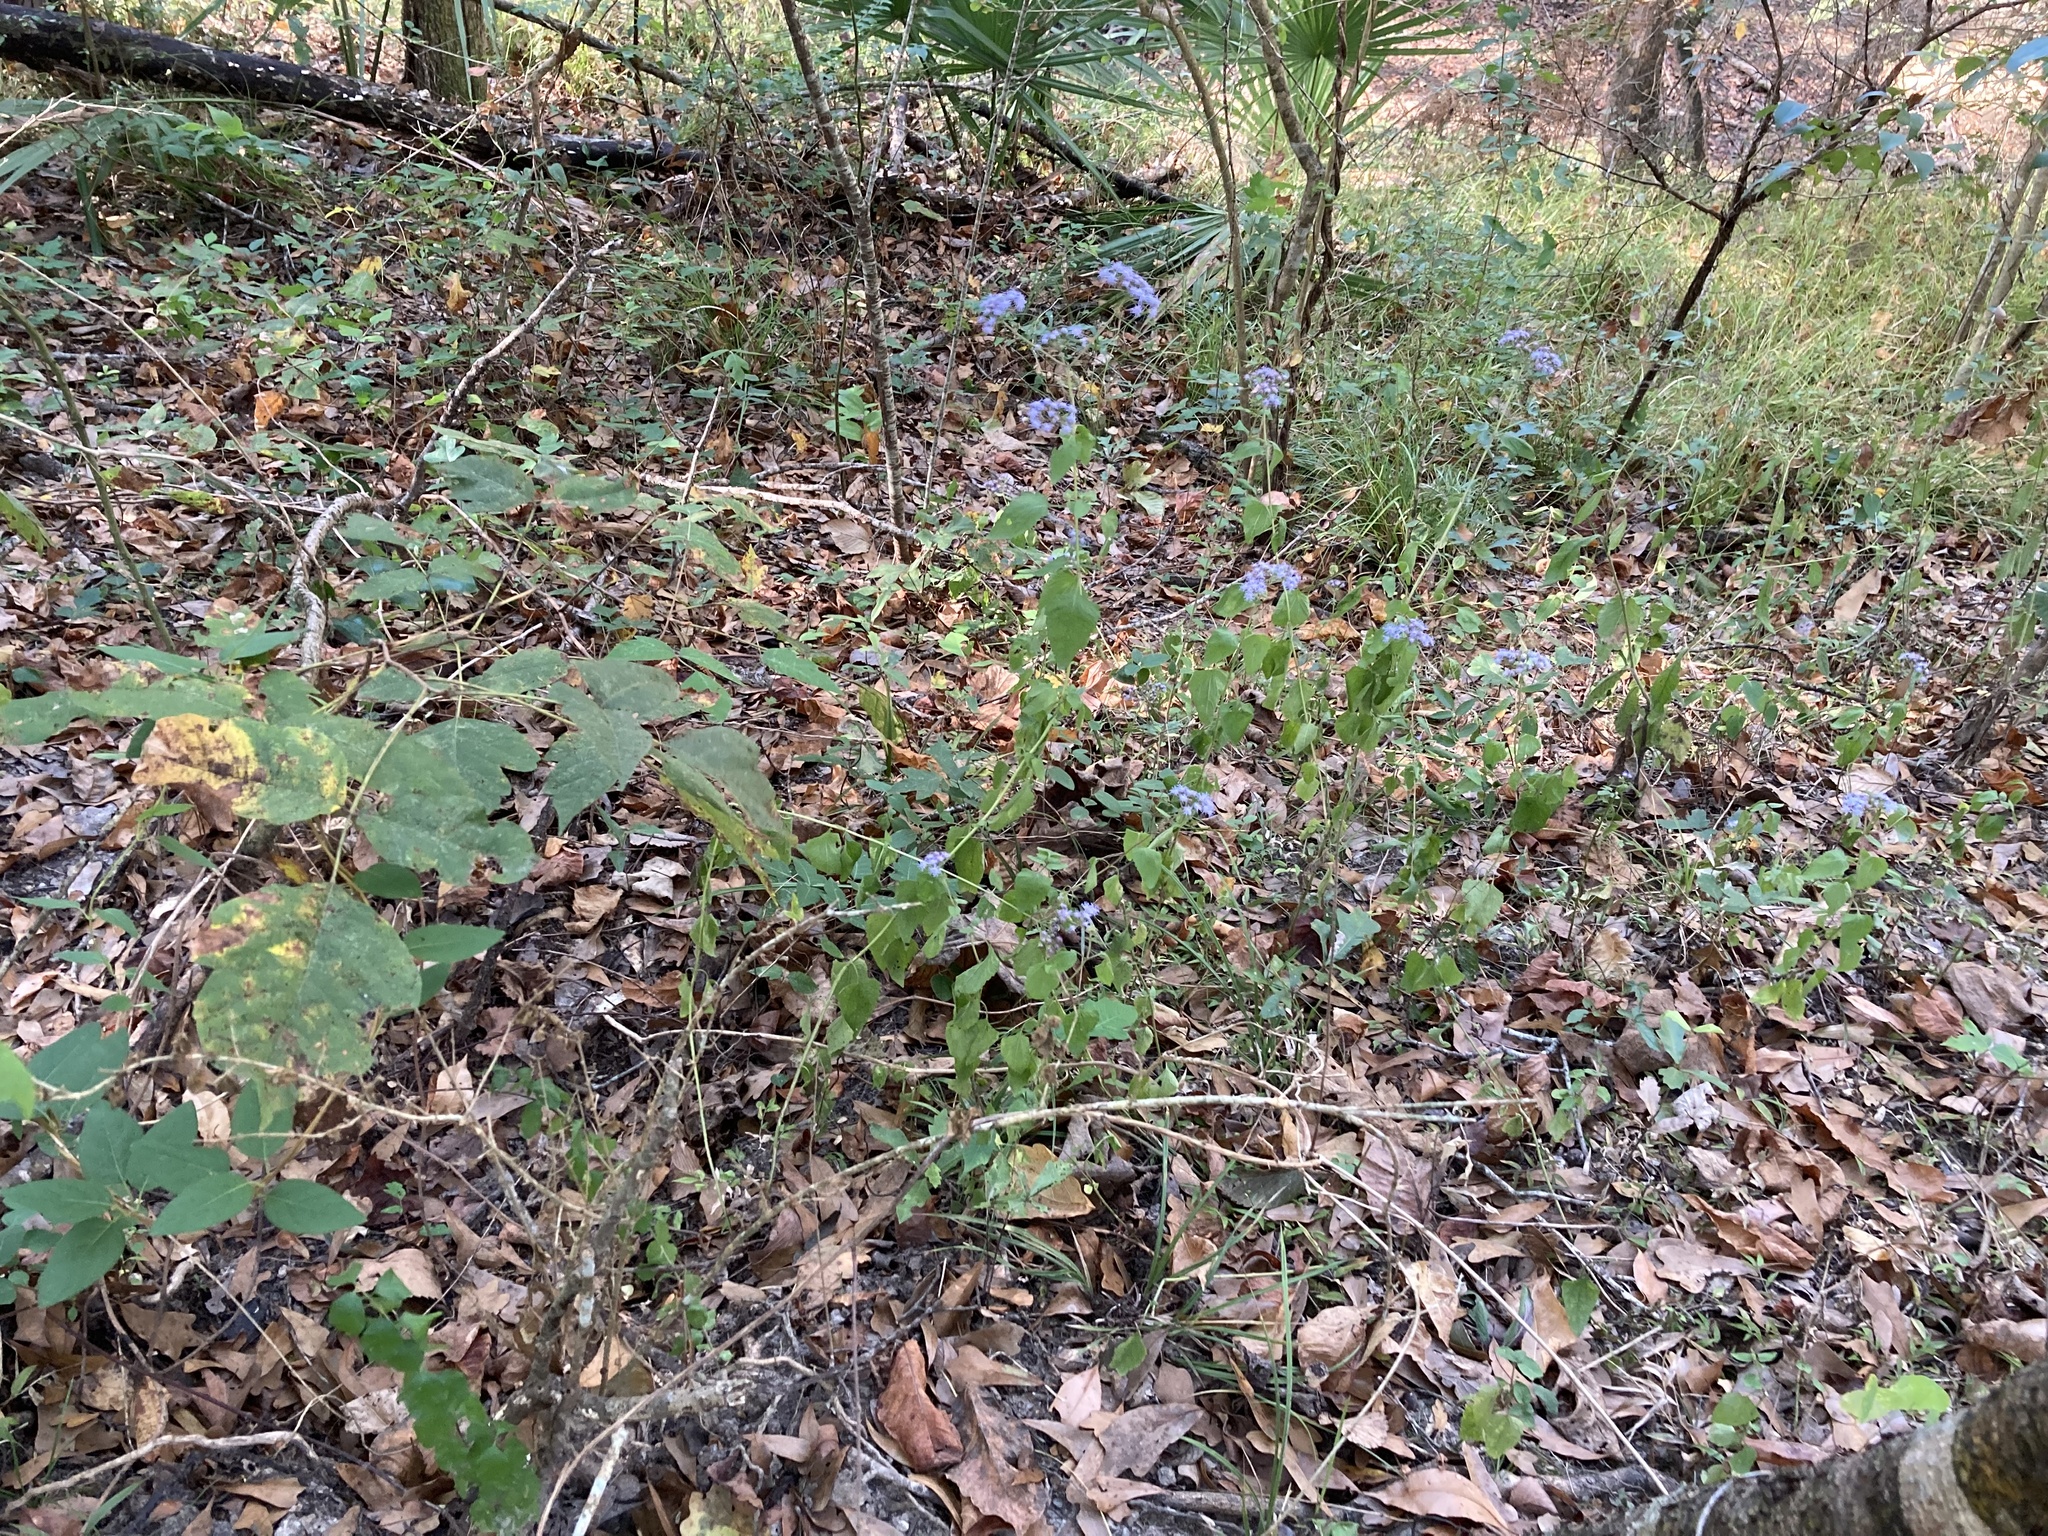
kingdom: Plantae
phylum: Tracheophyta
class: Magnoliopsida
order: Asterales
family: Asteraceae
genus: Conoclinium
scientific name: Conoclinium coelestinum
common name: Blue mistflower
